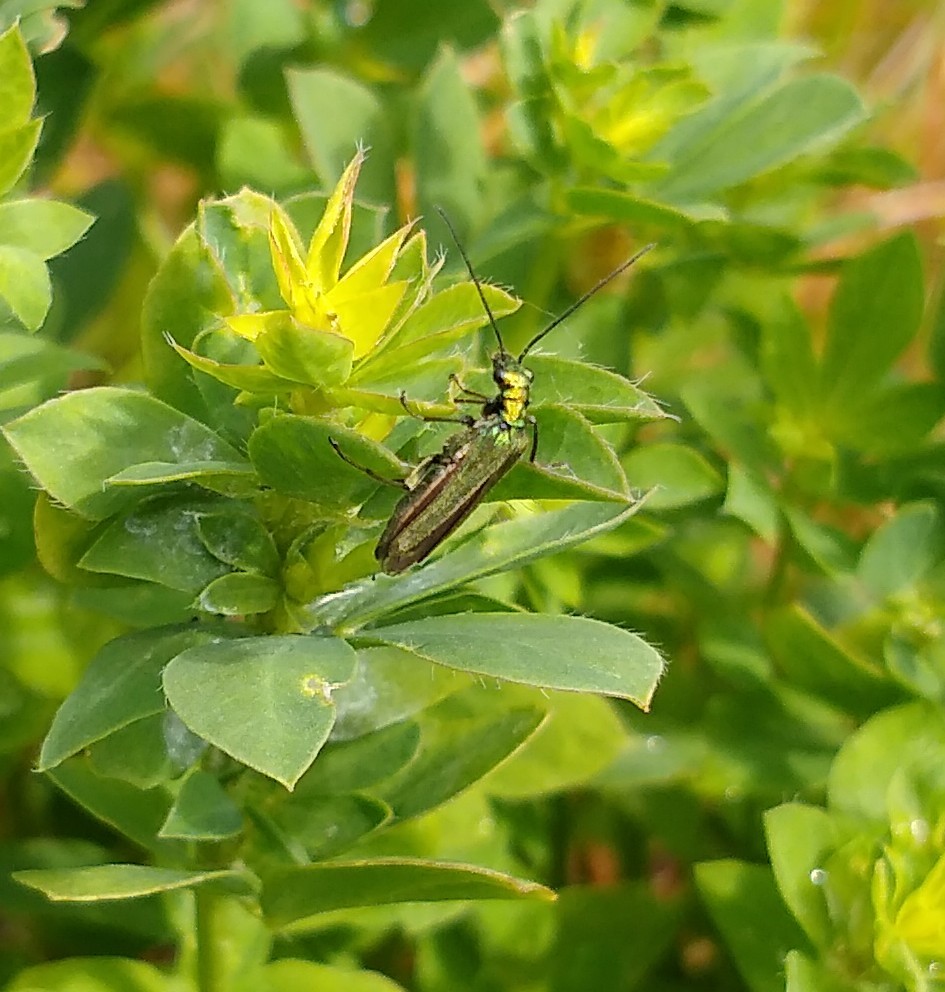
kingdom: Animalia
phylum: Arthropoda
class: Insecta
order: Coleoptera
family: Oedemeridae
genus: Oedemera
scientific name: Oedemera nobilis
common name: Swollen-thighed beetle
